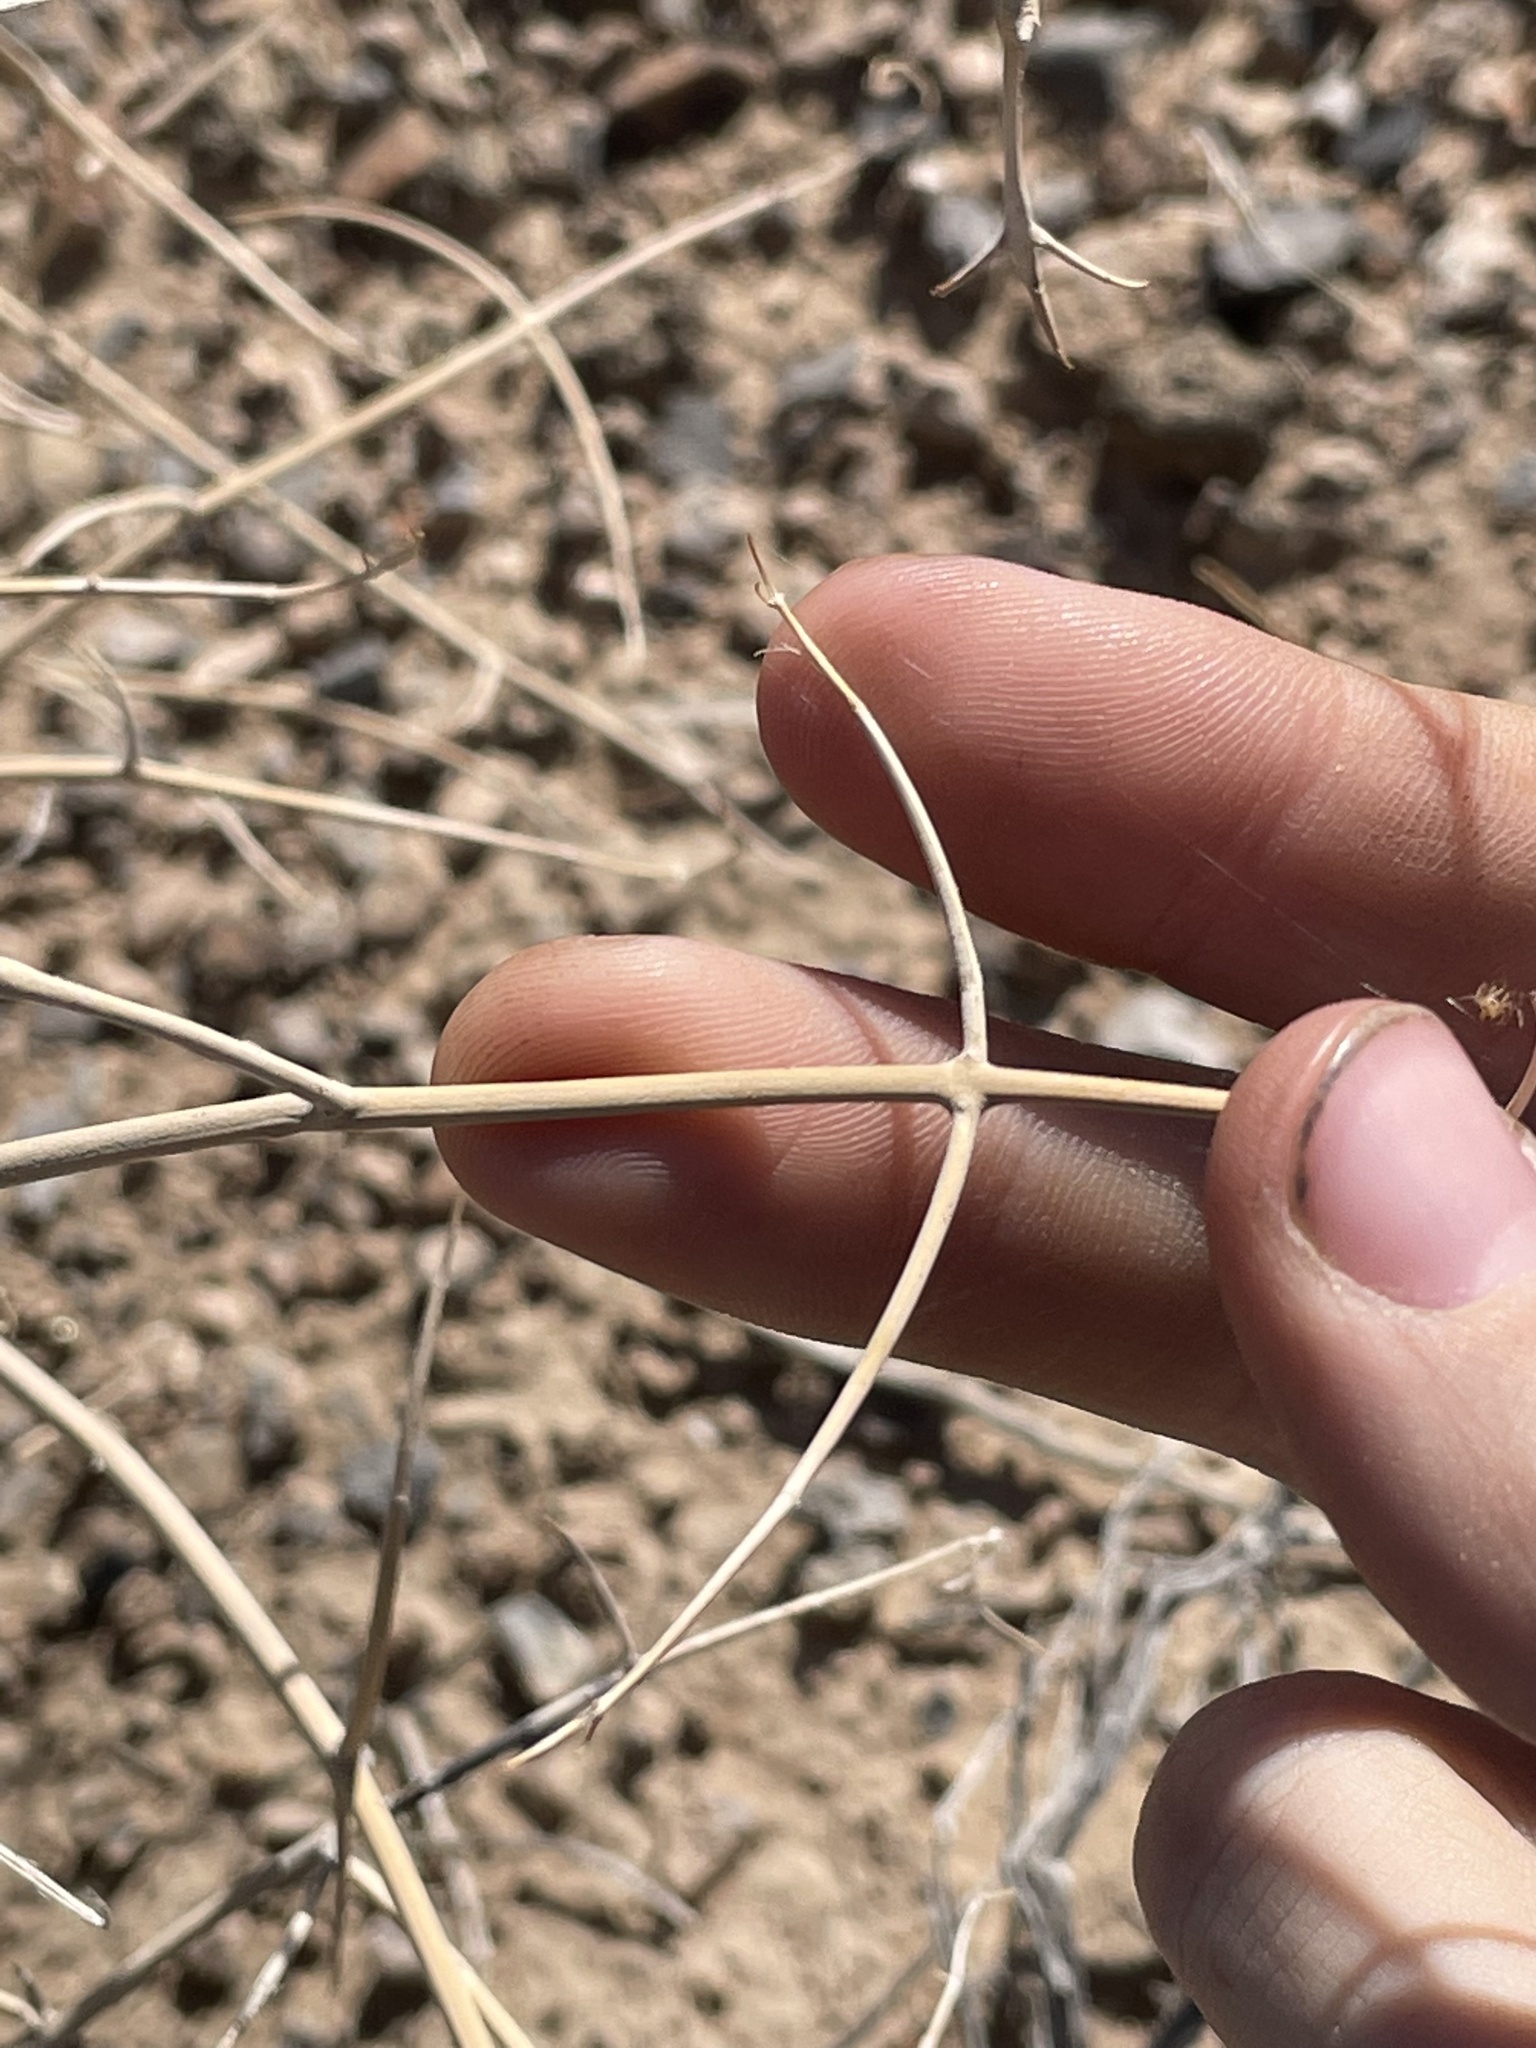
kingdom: Plantae
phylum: Tracheophyta
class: Magnoliopsida
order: Lamiales
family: Lamiaceae
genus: Scutellaria
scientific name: Scutellaria mexicana
